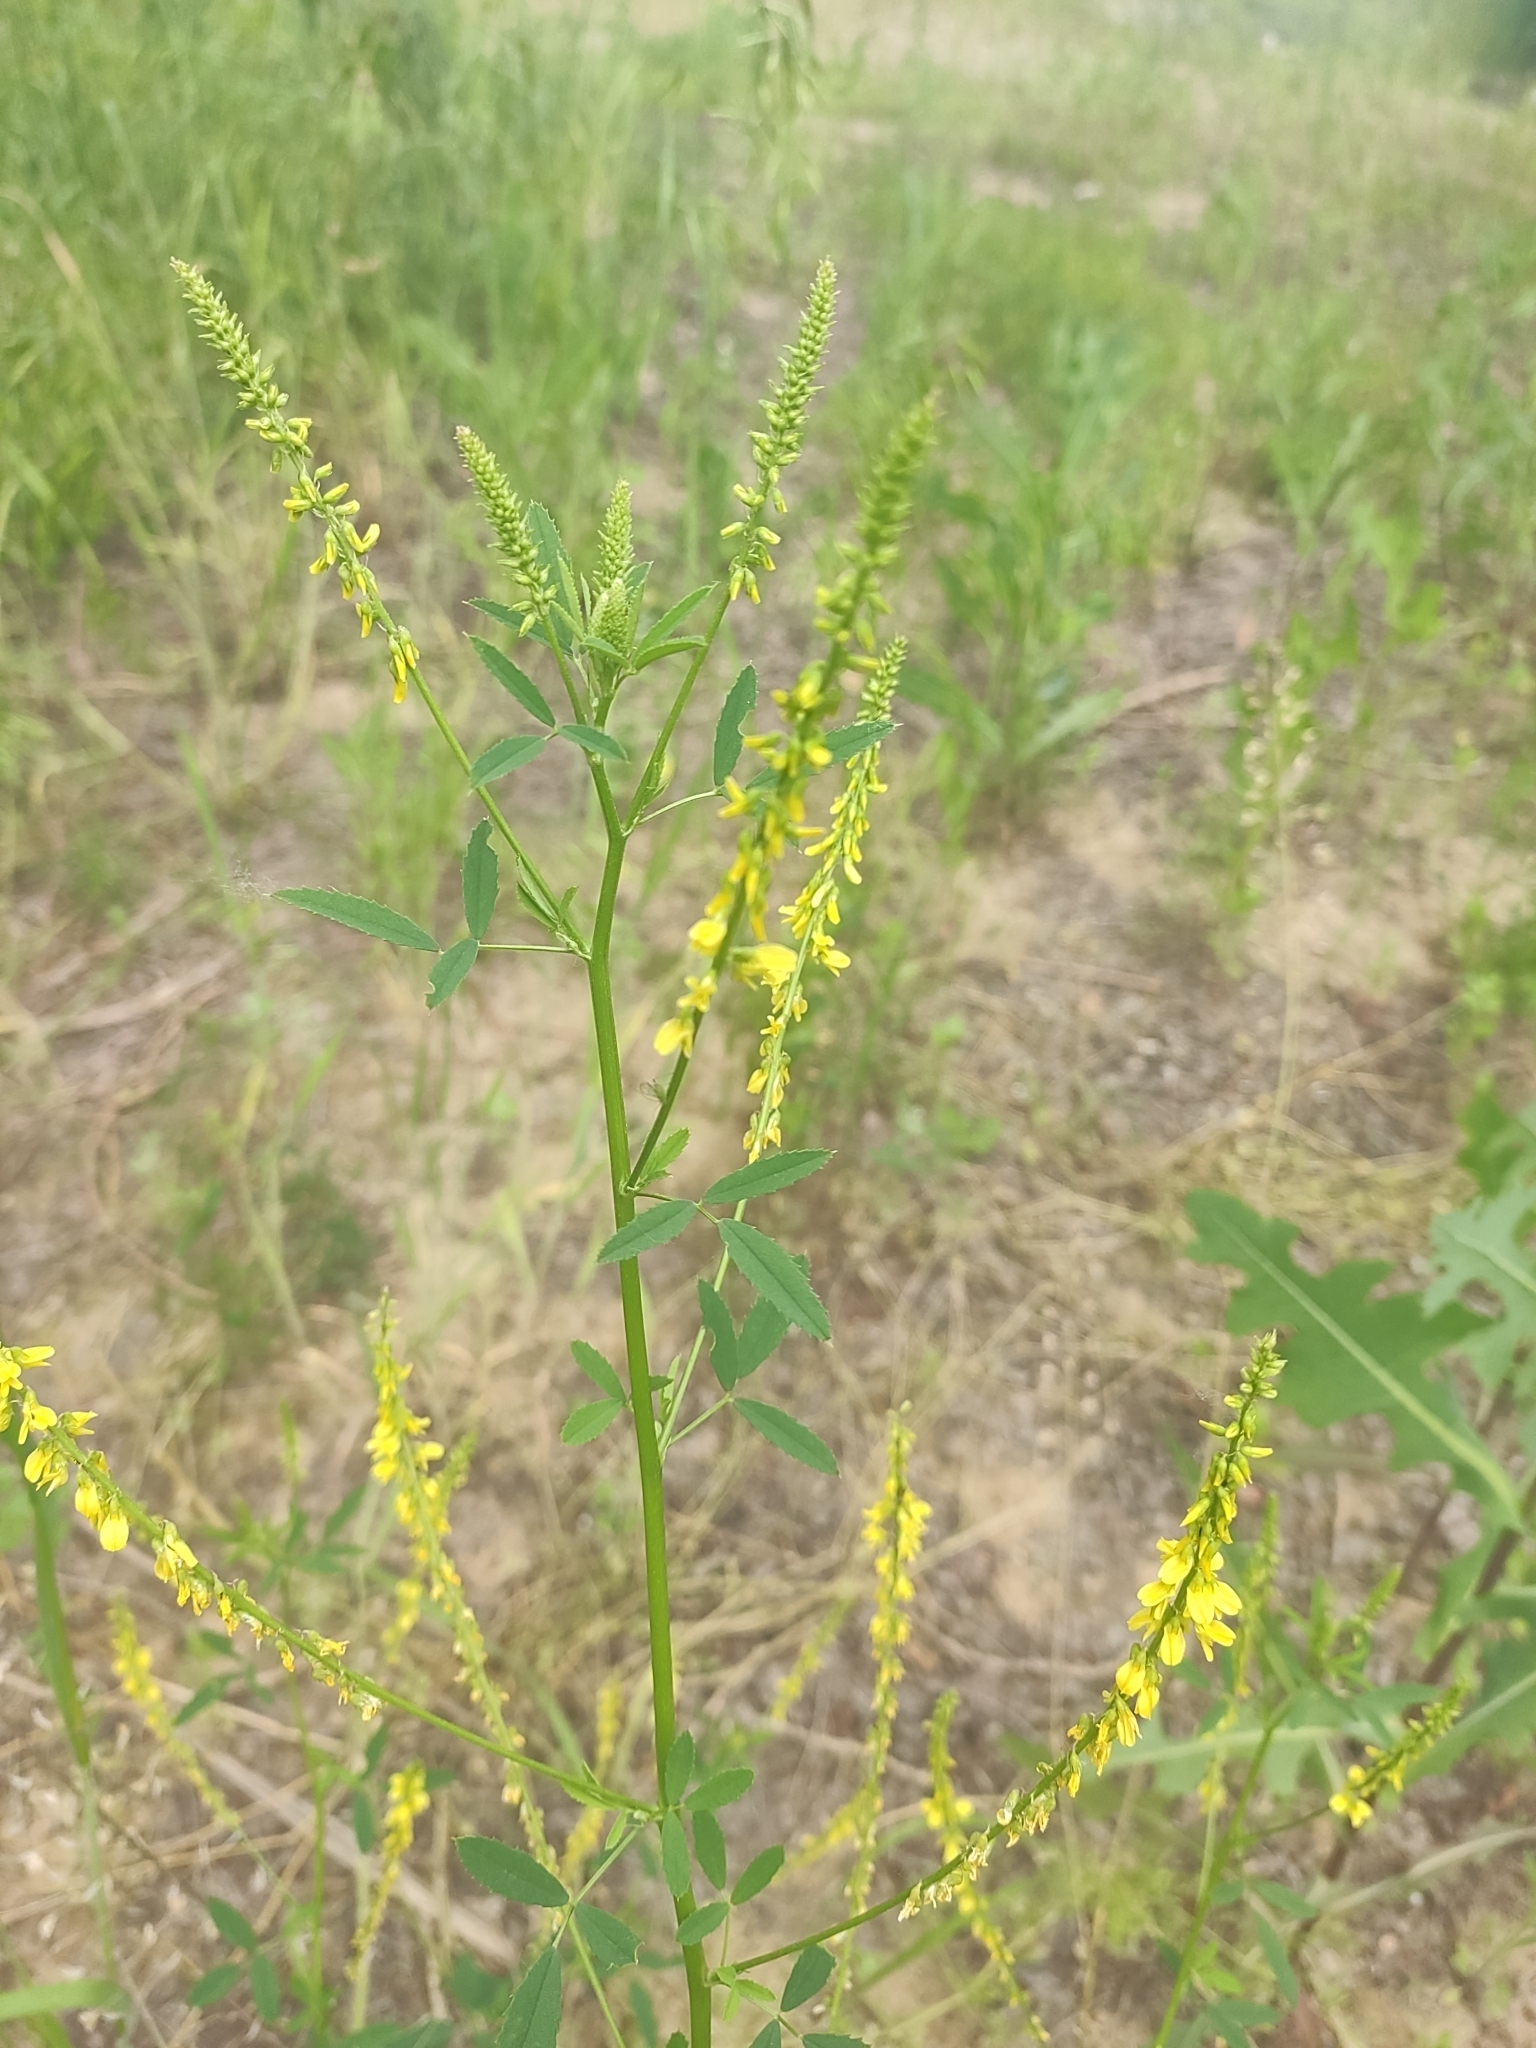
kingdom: Plantae
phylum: Tracheophyta
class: Magnoliopsida
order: Fabales
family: Fabaceae
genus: Melilotus
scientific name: Melilotus officinalis
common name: Sweetclover
